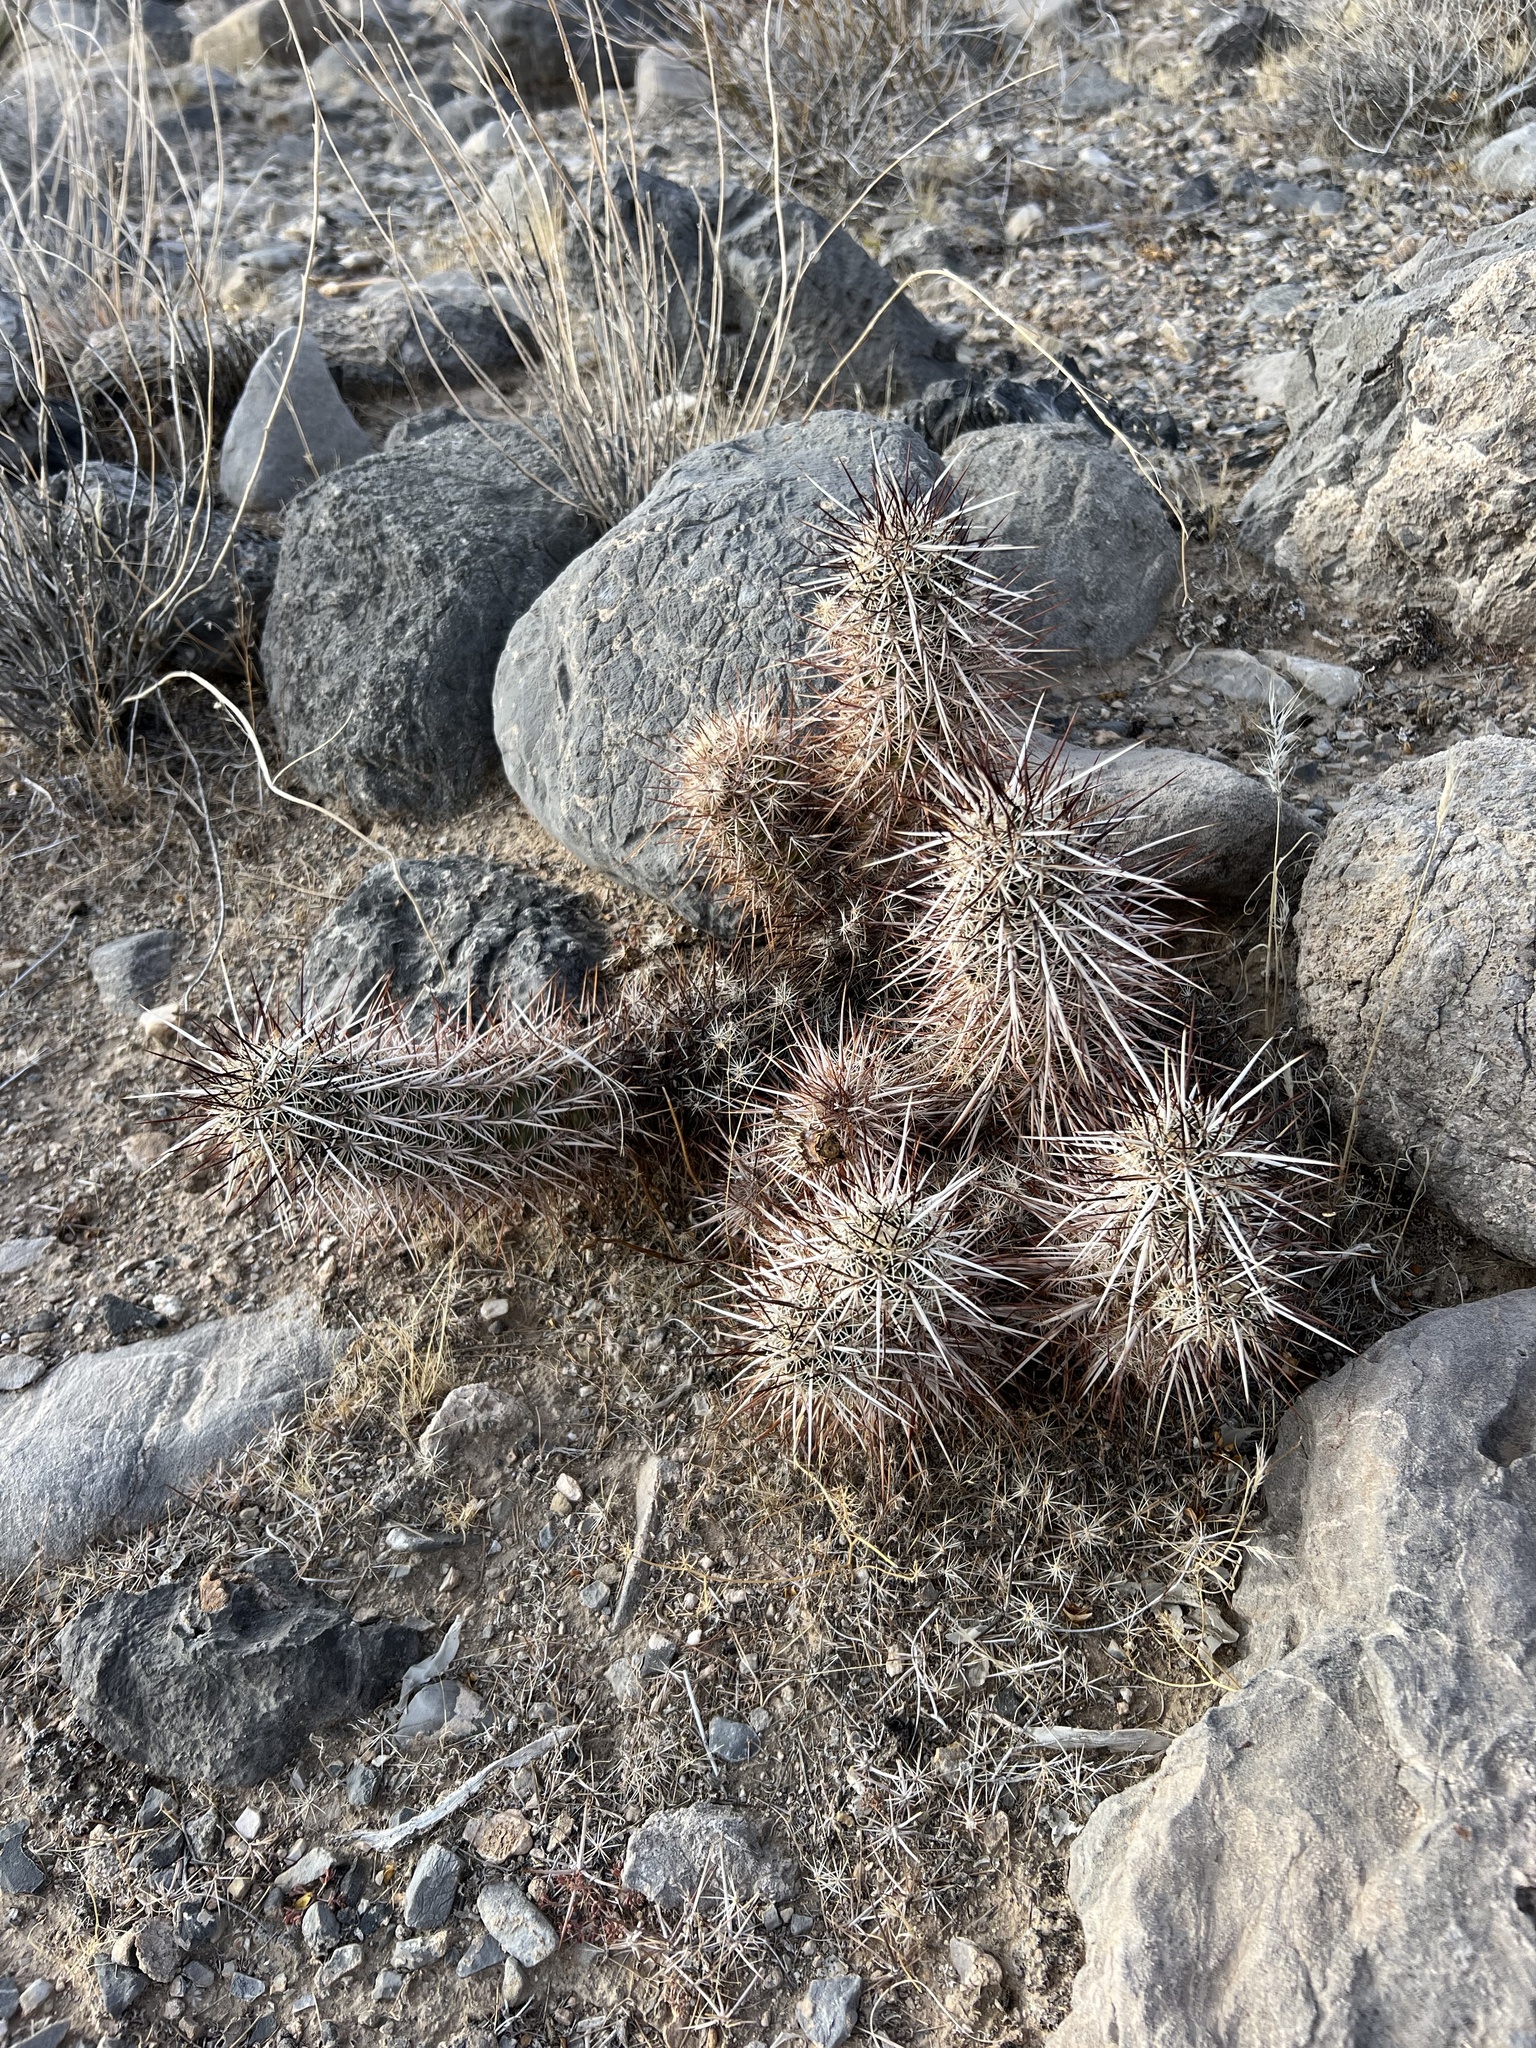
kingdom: Plantae
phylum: Tracheophyta
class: Magnoliopsida
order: Caryophyllales
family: Cactaceae
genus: Echinocereus
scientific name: Echinocereus engelmannii
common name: Engelmann's hedgehog cactus
